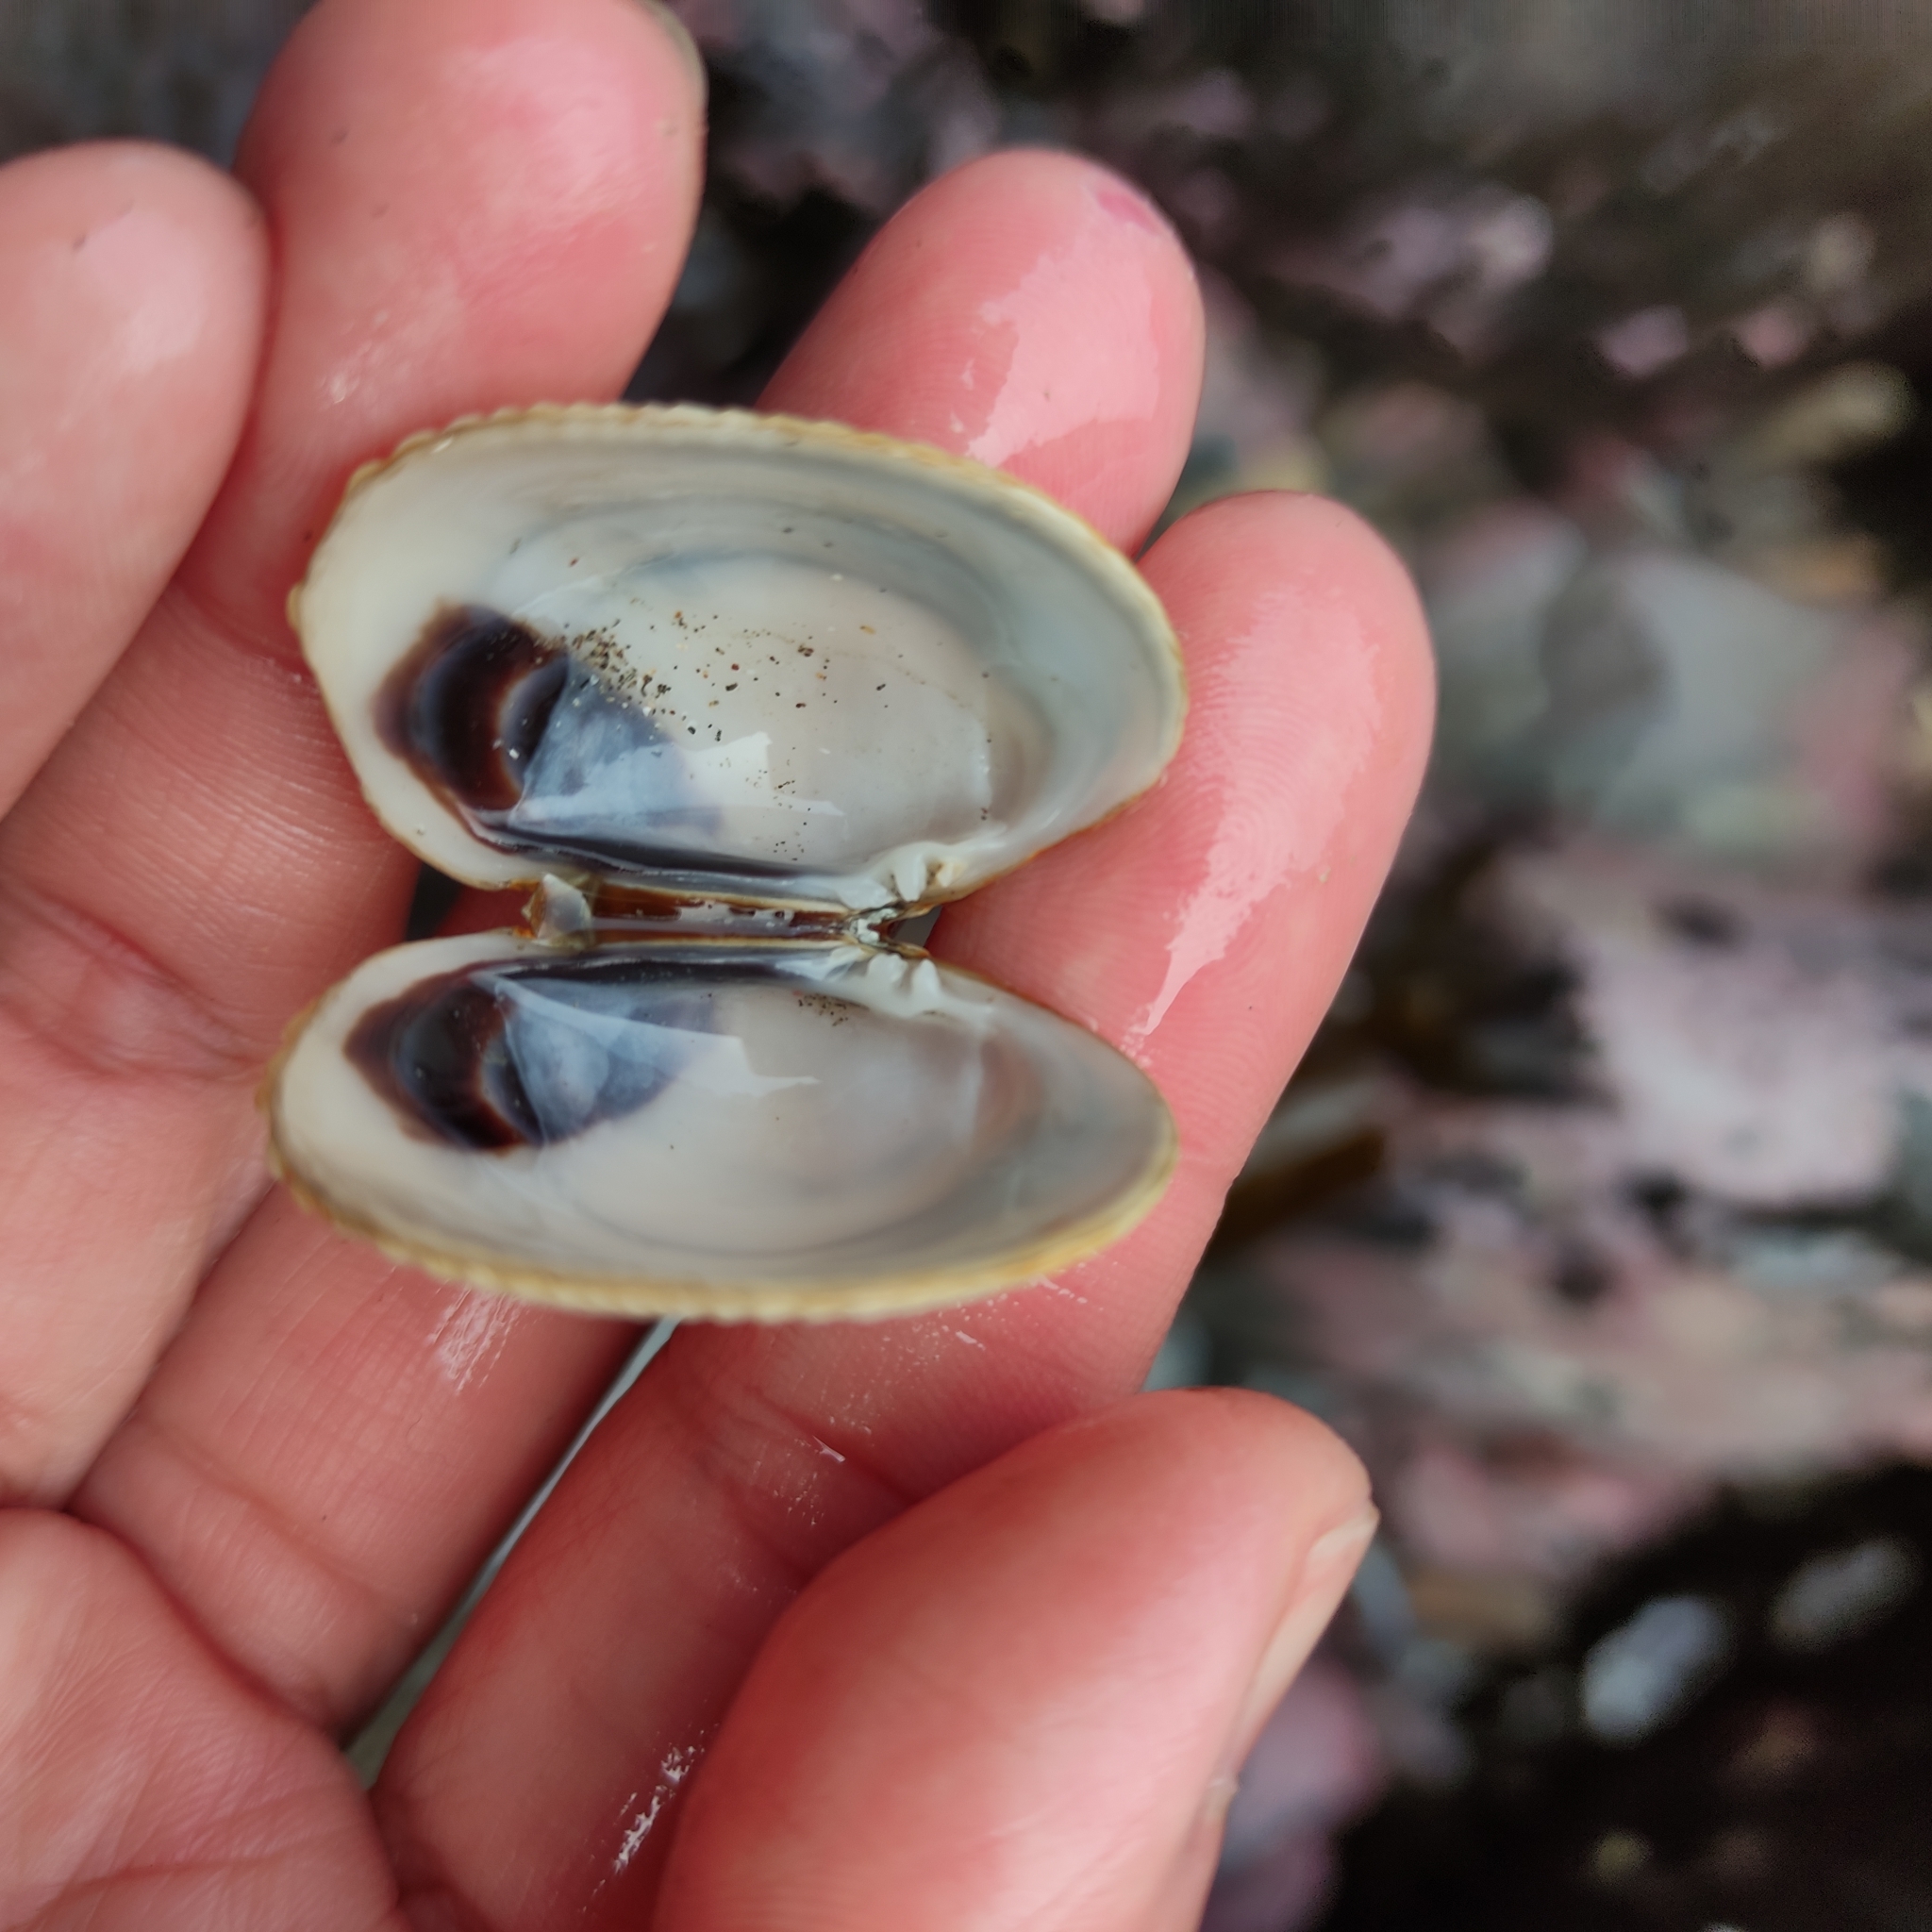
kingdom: Animalia
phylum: Mollusca
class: Bivalvia
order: Venerida
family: Veneridae
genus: Leukoma
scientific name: Leukoma crassicosta
